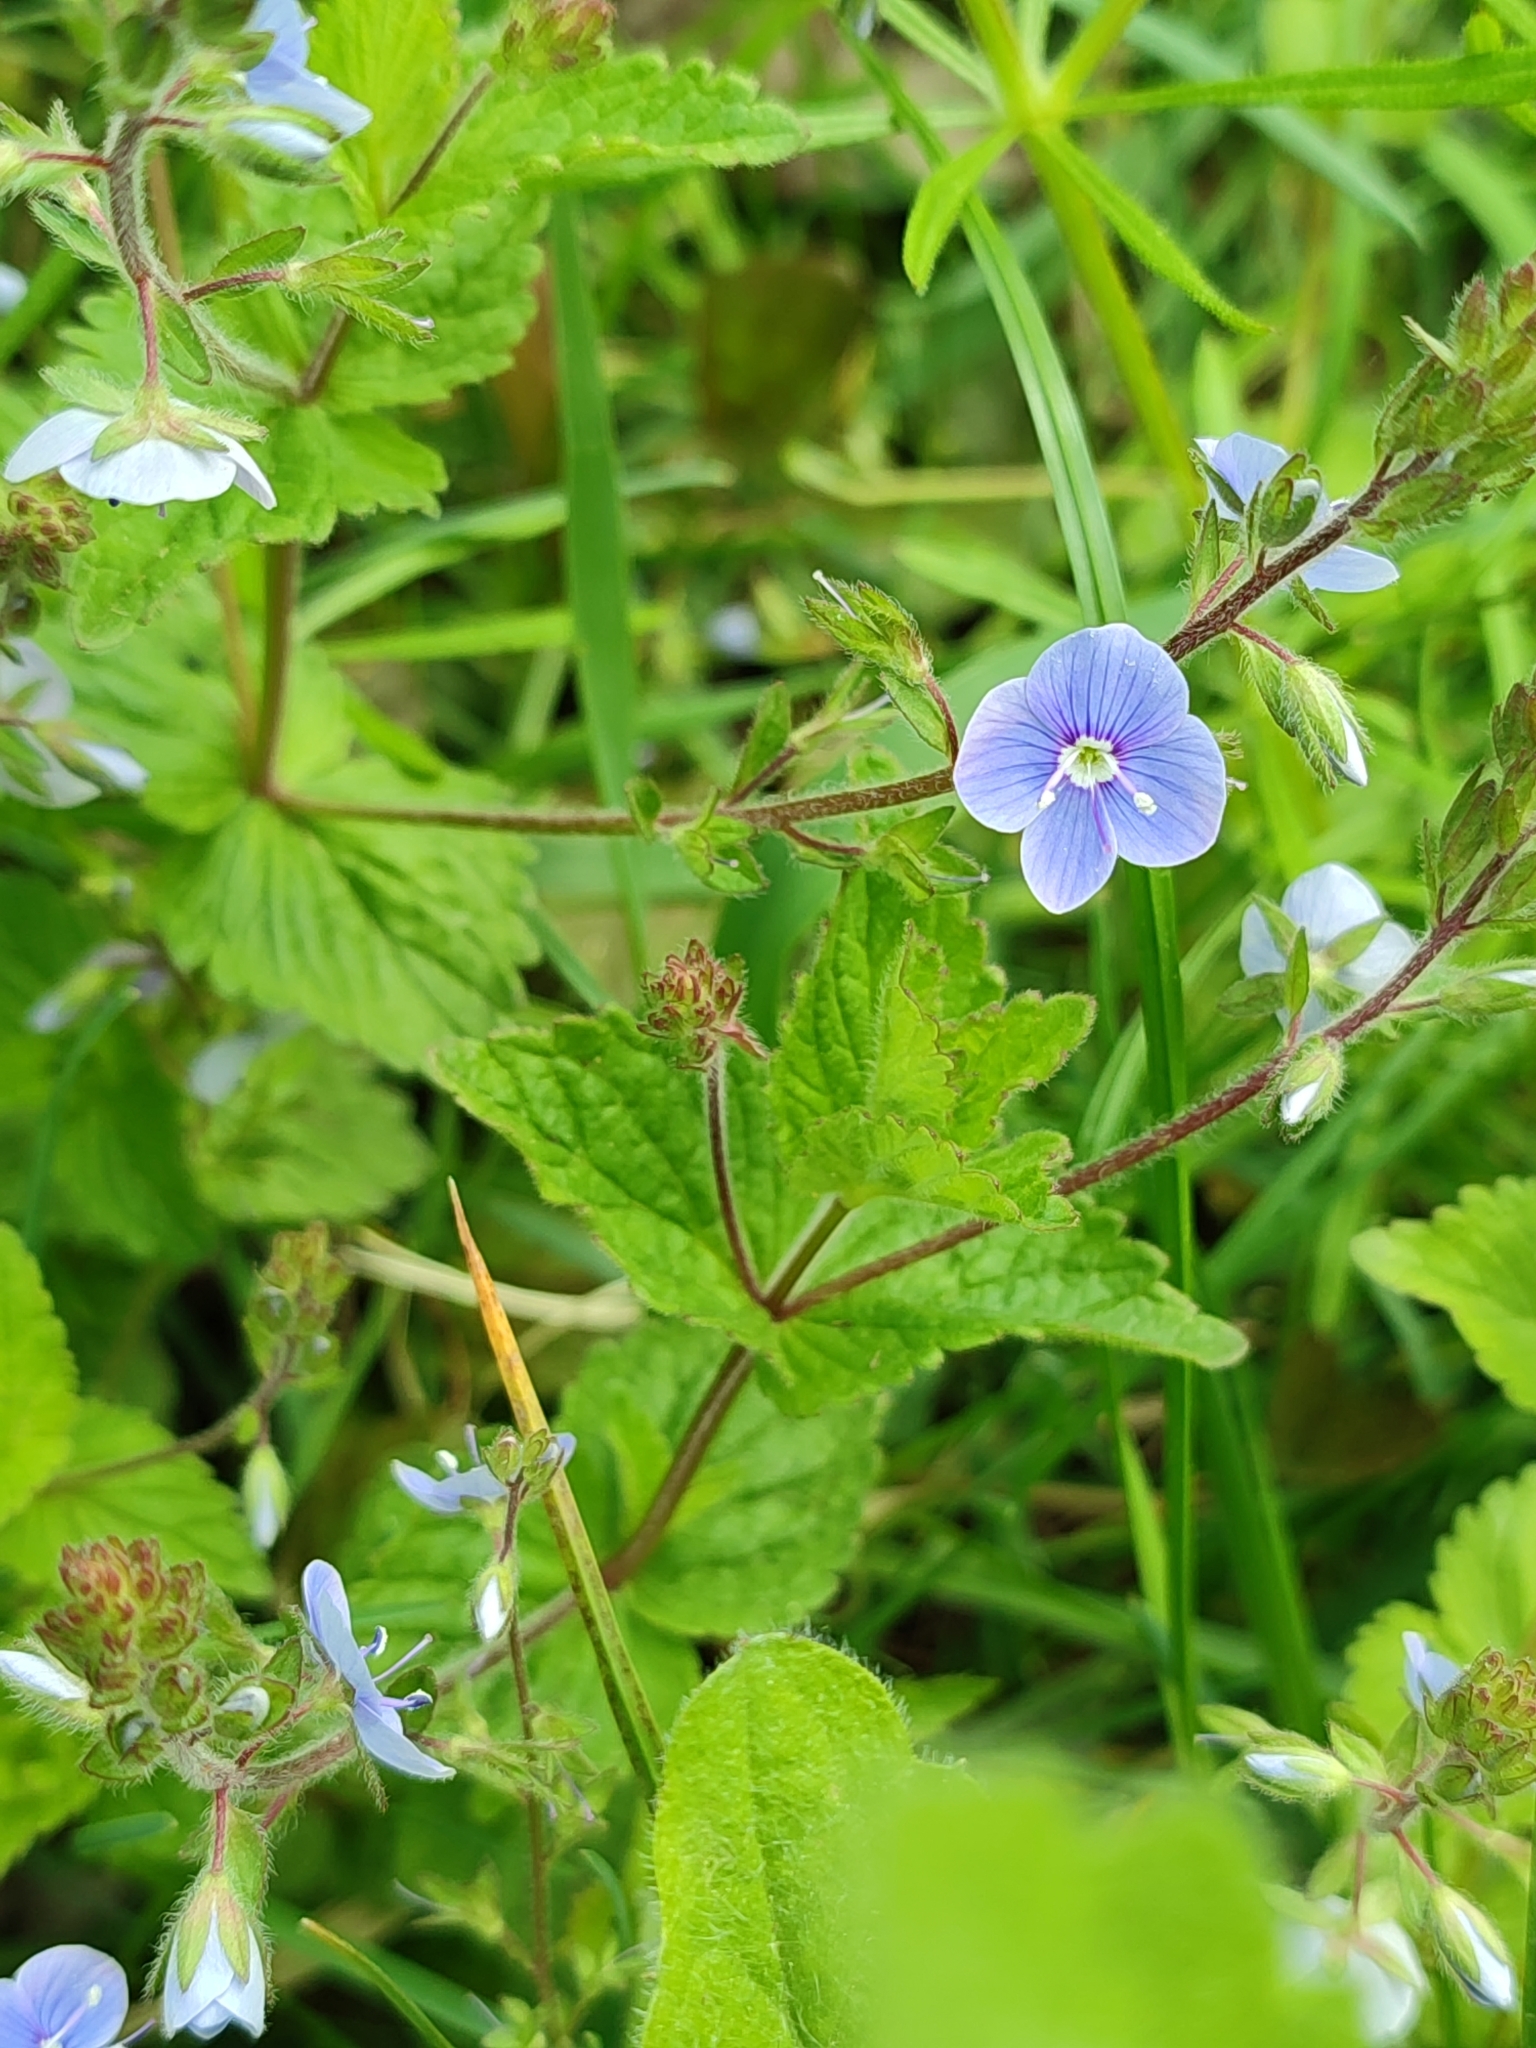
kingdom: Plantae
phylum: Tracheophyta
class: Magnoliopsida
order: Lamiales
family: Plantaginaceae
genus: Veronica
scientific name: Veronica chamaedrys
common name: Germander speedwell
